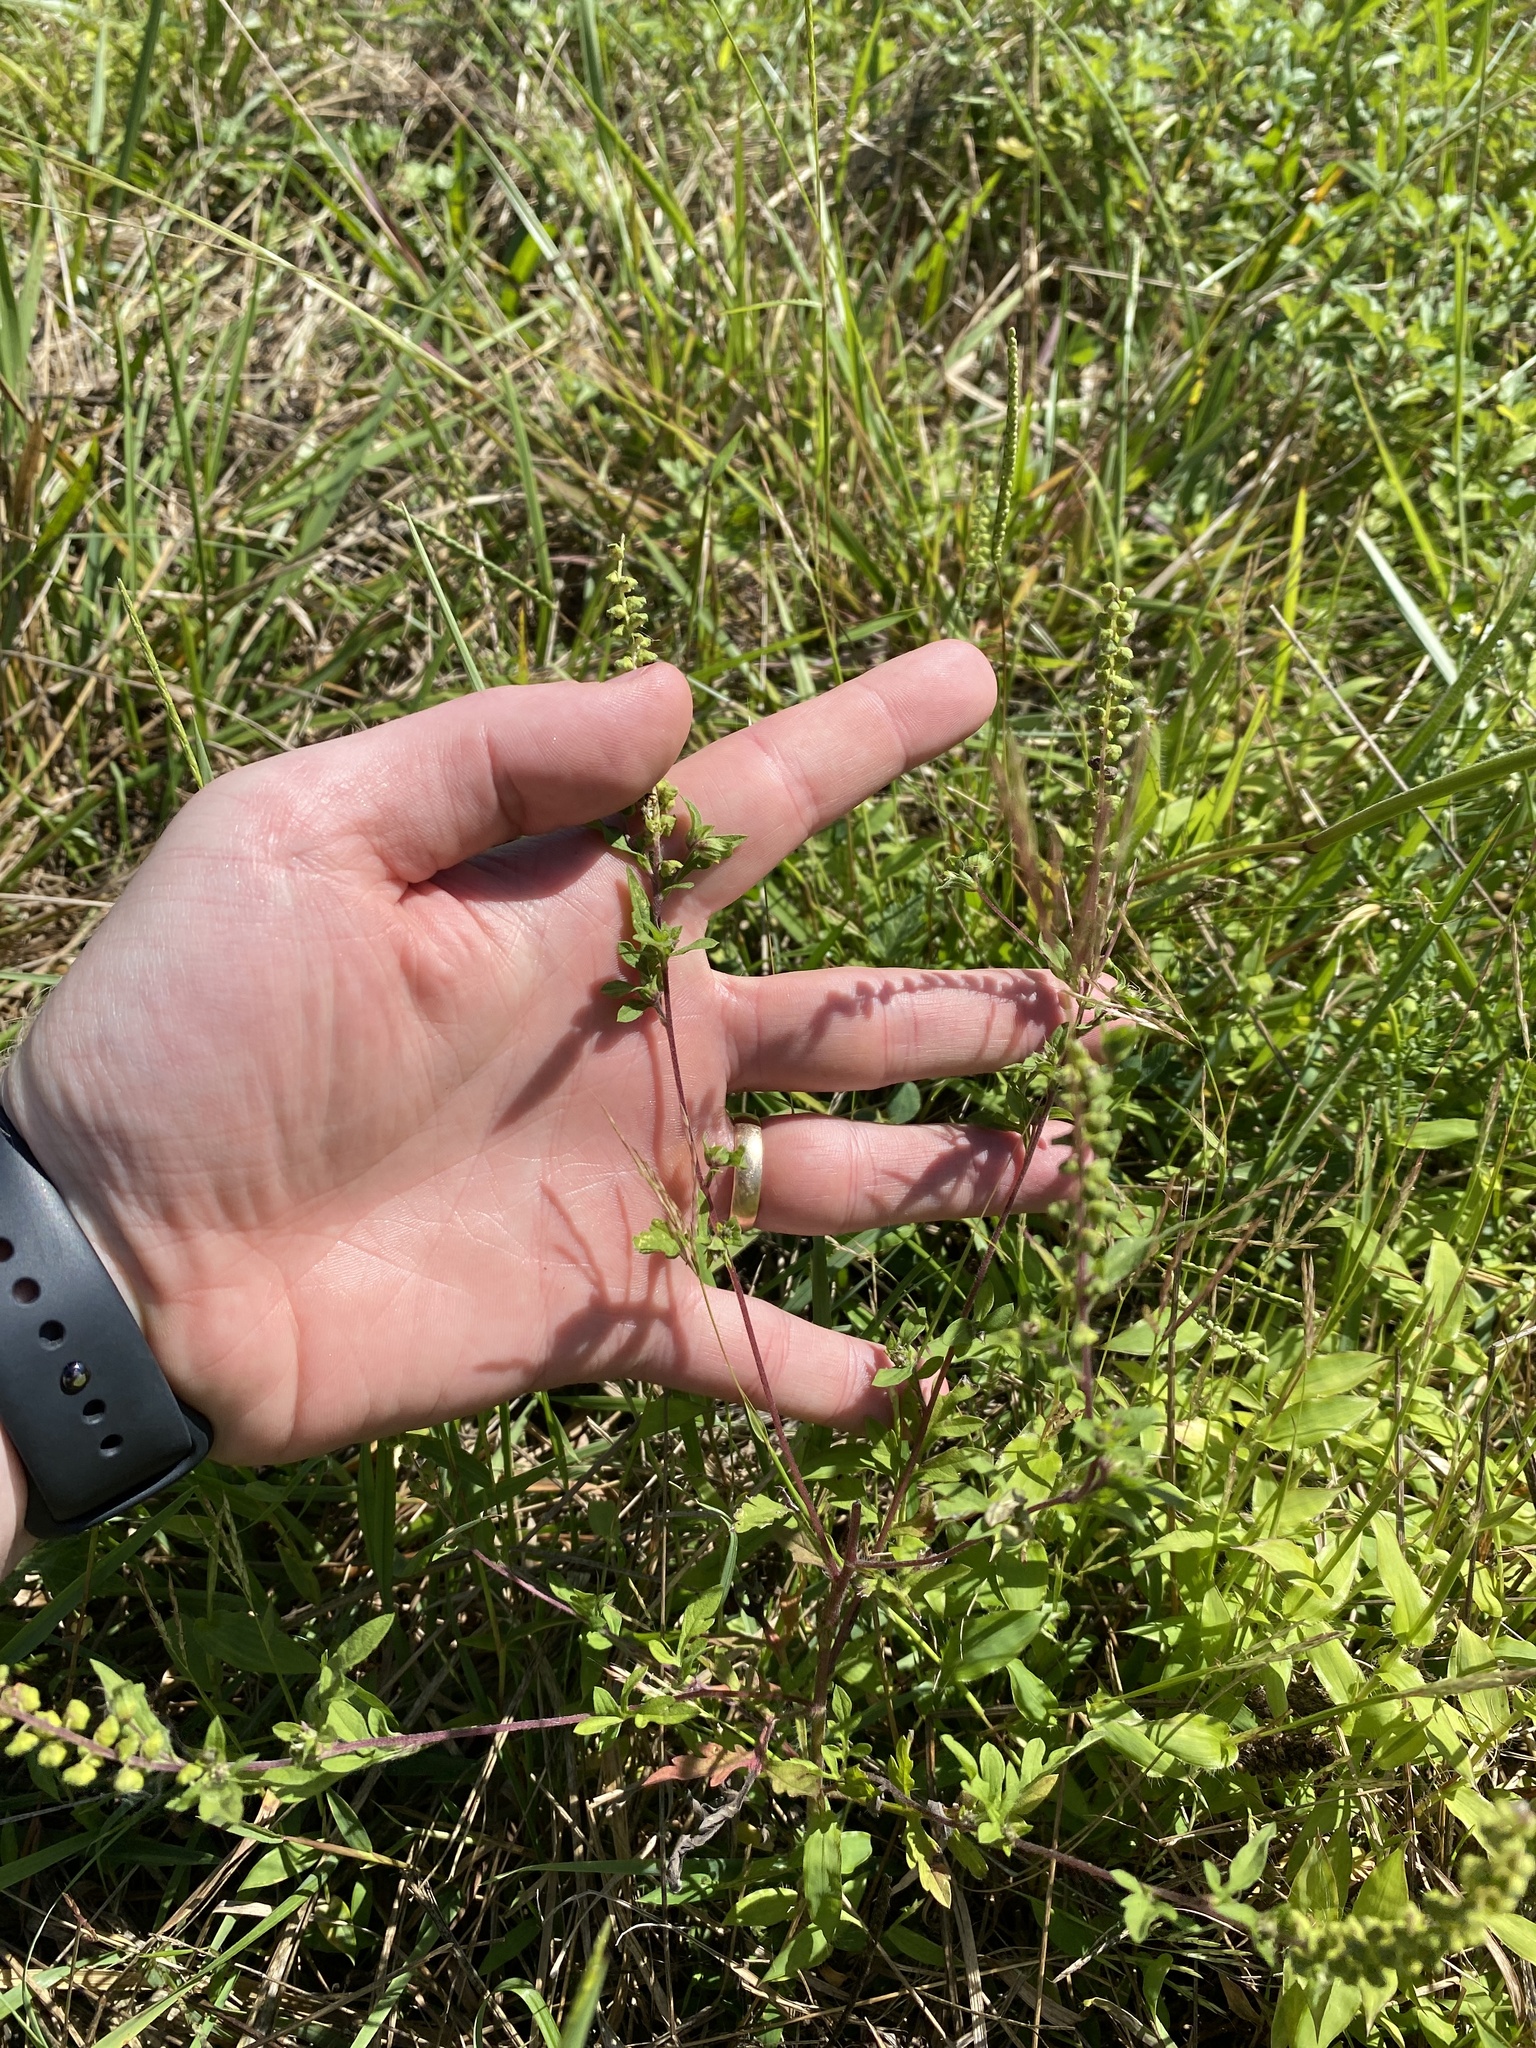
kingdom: Plantae
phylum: Tracheophyta
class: Magnoliopsida
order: Asterales
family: Asteraceae
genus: Ambrosia
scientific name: Ambrosia artemisiifolia
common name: Annual ragweed
